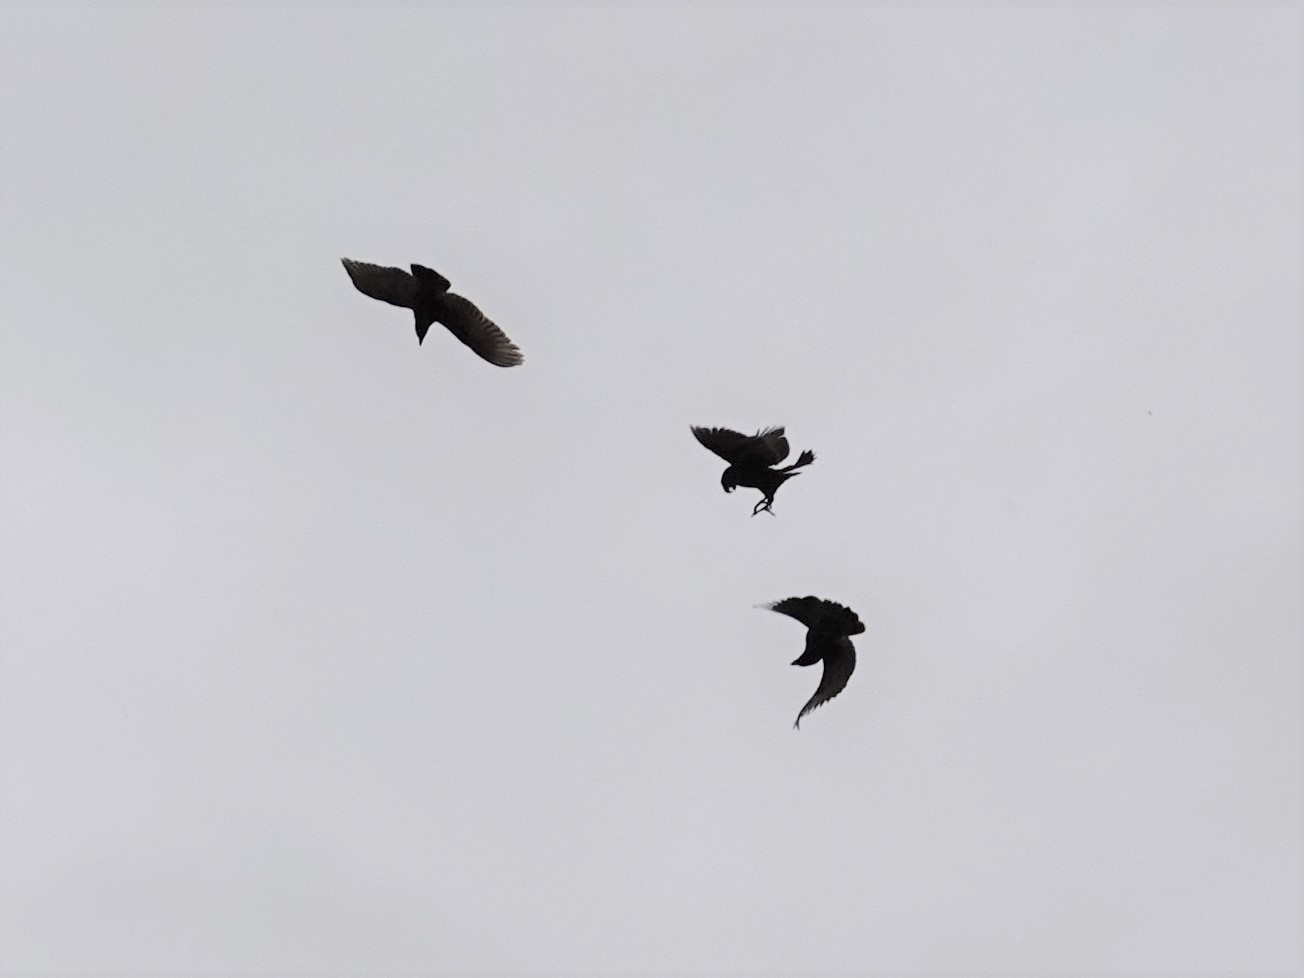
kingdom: Animalia
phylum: Chordata
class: Aves
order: Psittaciformes
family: Psittacidae
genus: Nestor
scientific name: Nestor meridionalis
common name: New zealand kaka
